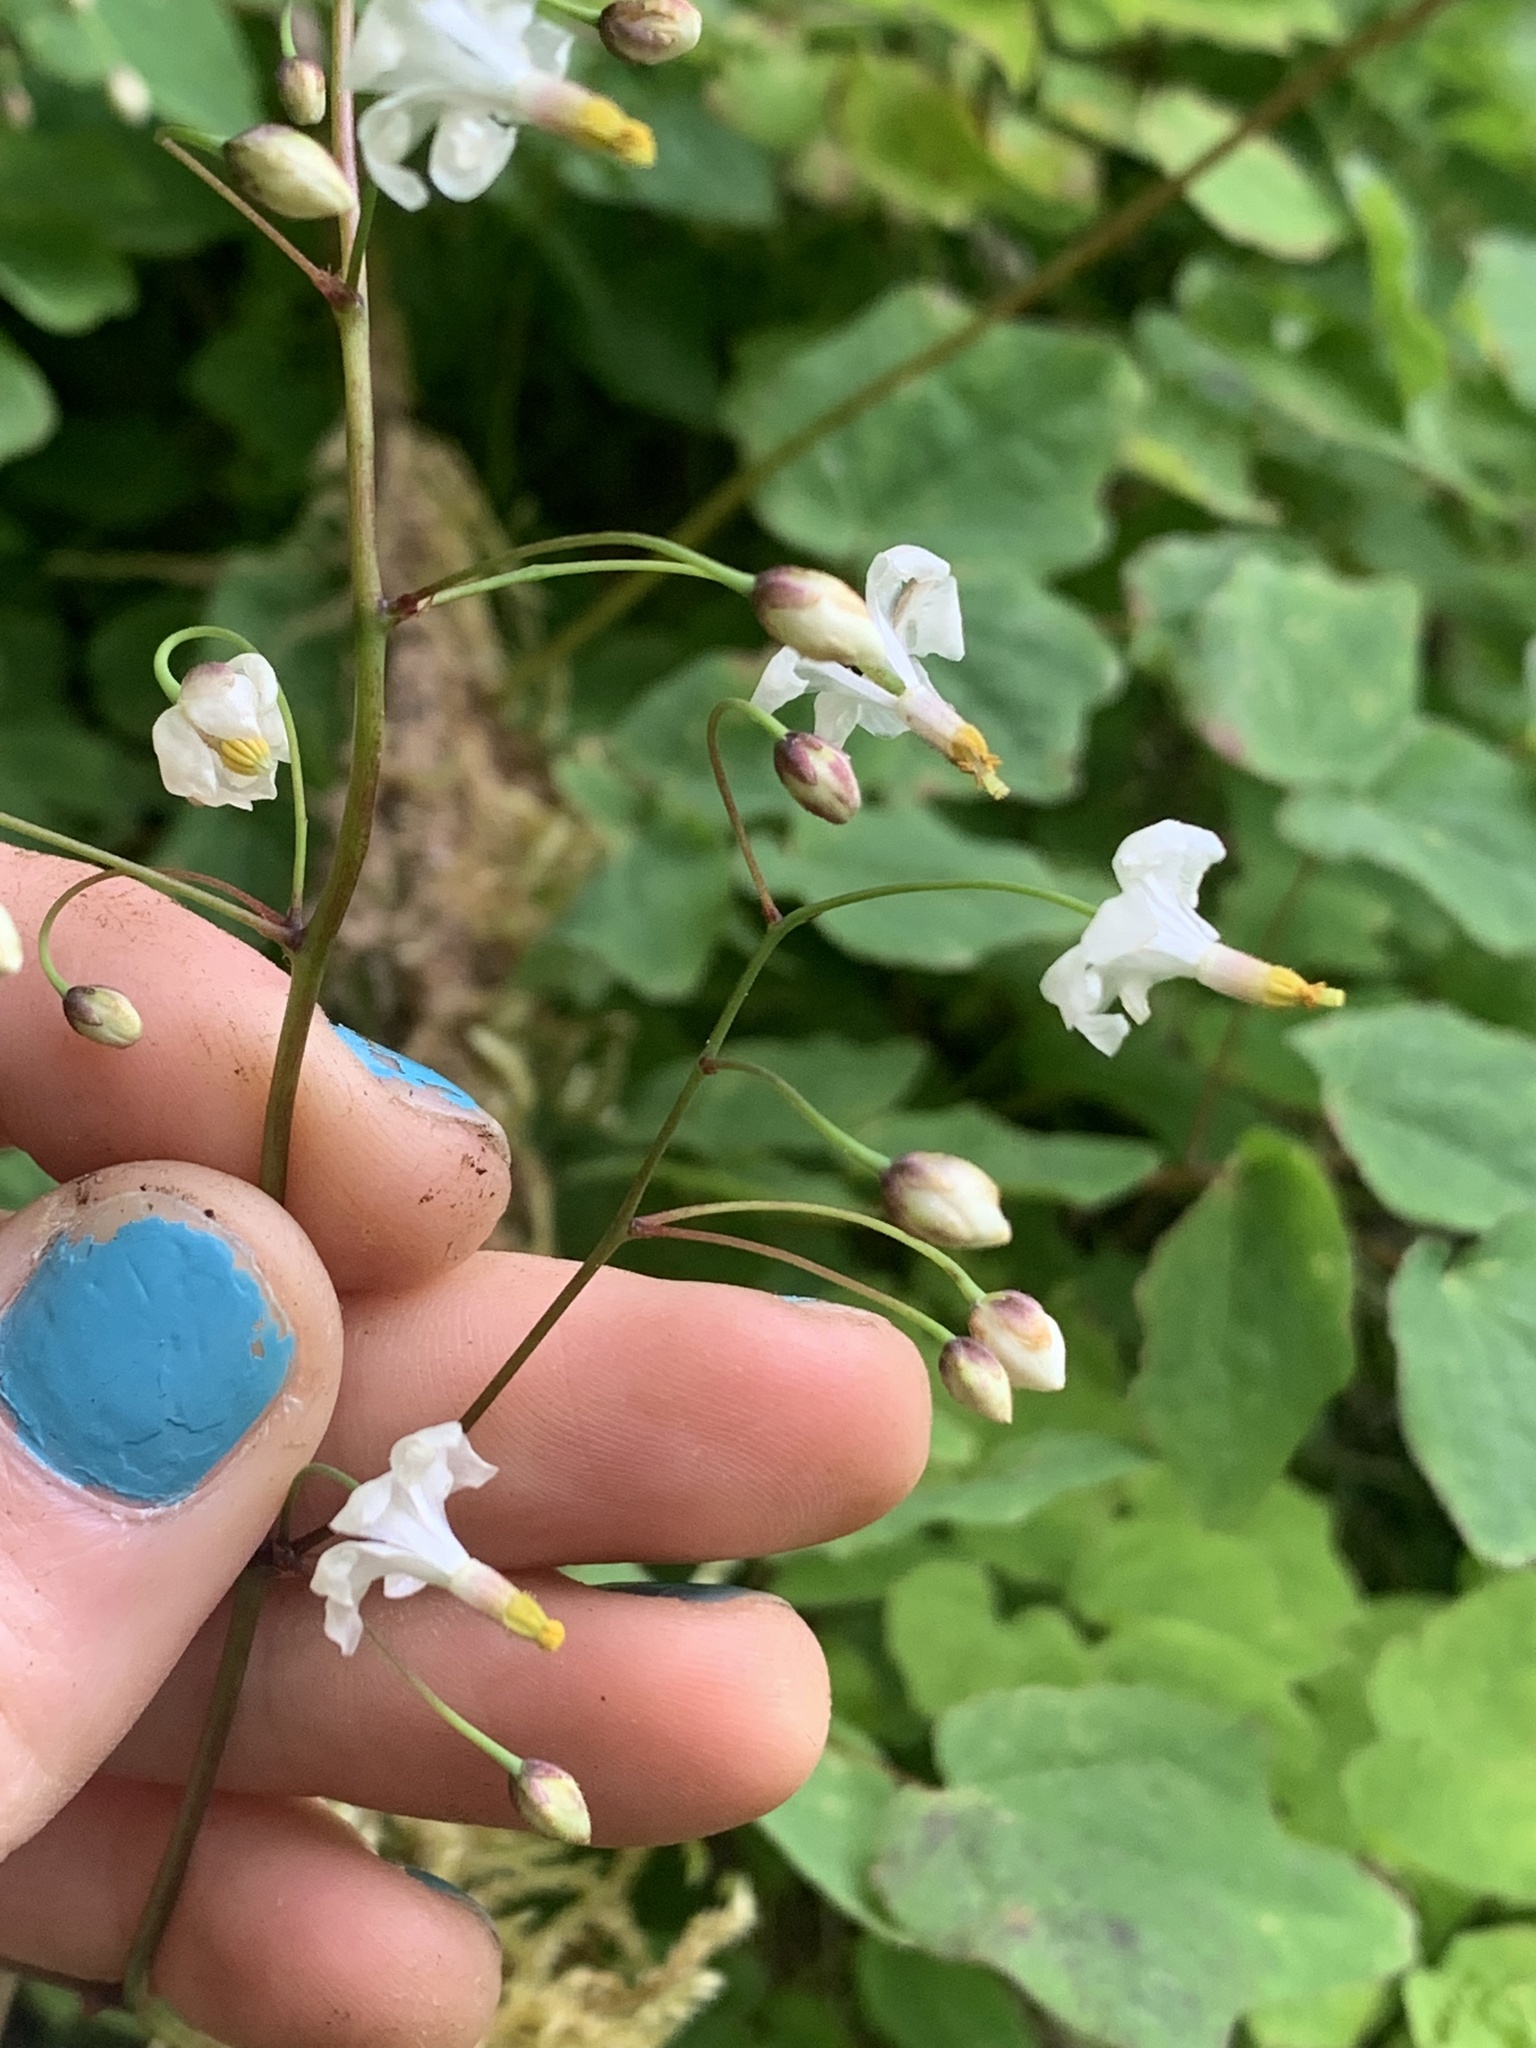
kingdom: Plantae
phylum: Tracheophyta
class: Magnoliopsida
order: Ranunculales
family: Berberidaceae
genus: Vancouveria
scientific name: Vancouveria hexandra
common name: Northern inside-out-flower
